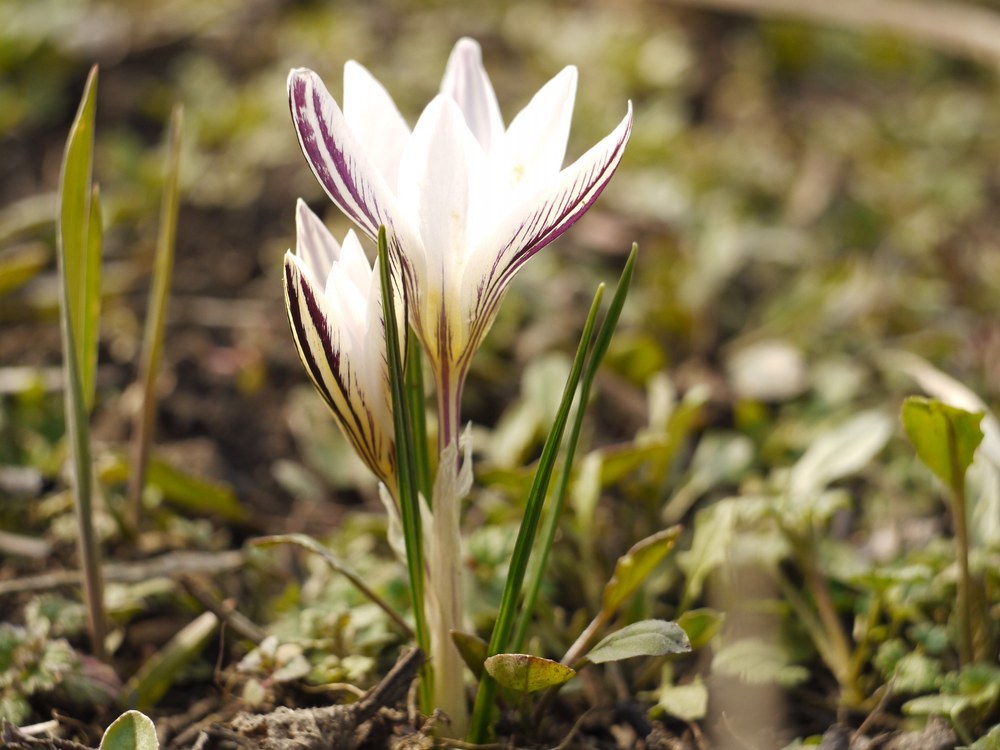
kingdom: Plantae
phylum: Tracheophyta
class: Liliopsida
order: Asparagales
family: Iridaceae
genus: Crocus
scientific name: Crocus reticulatus
